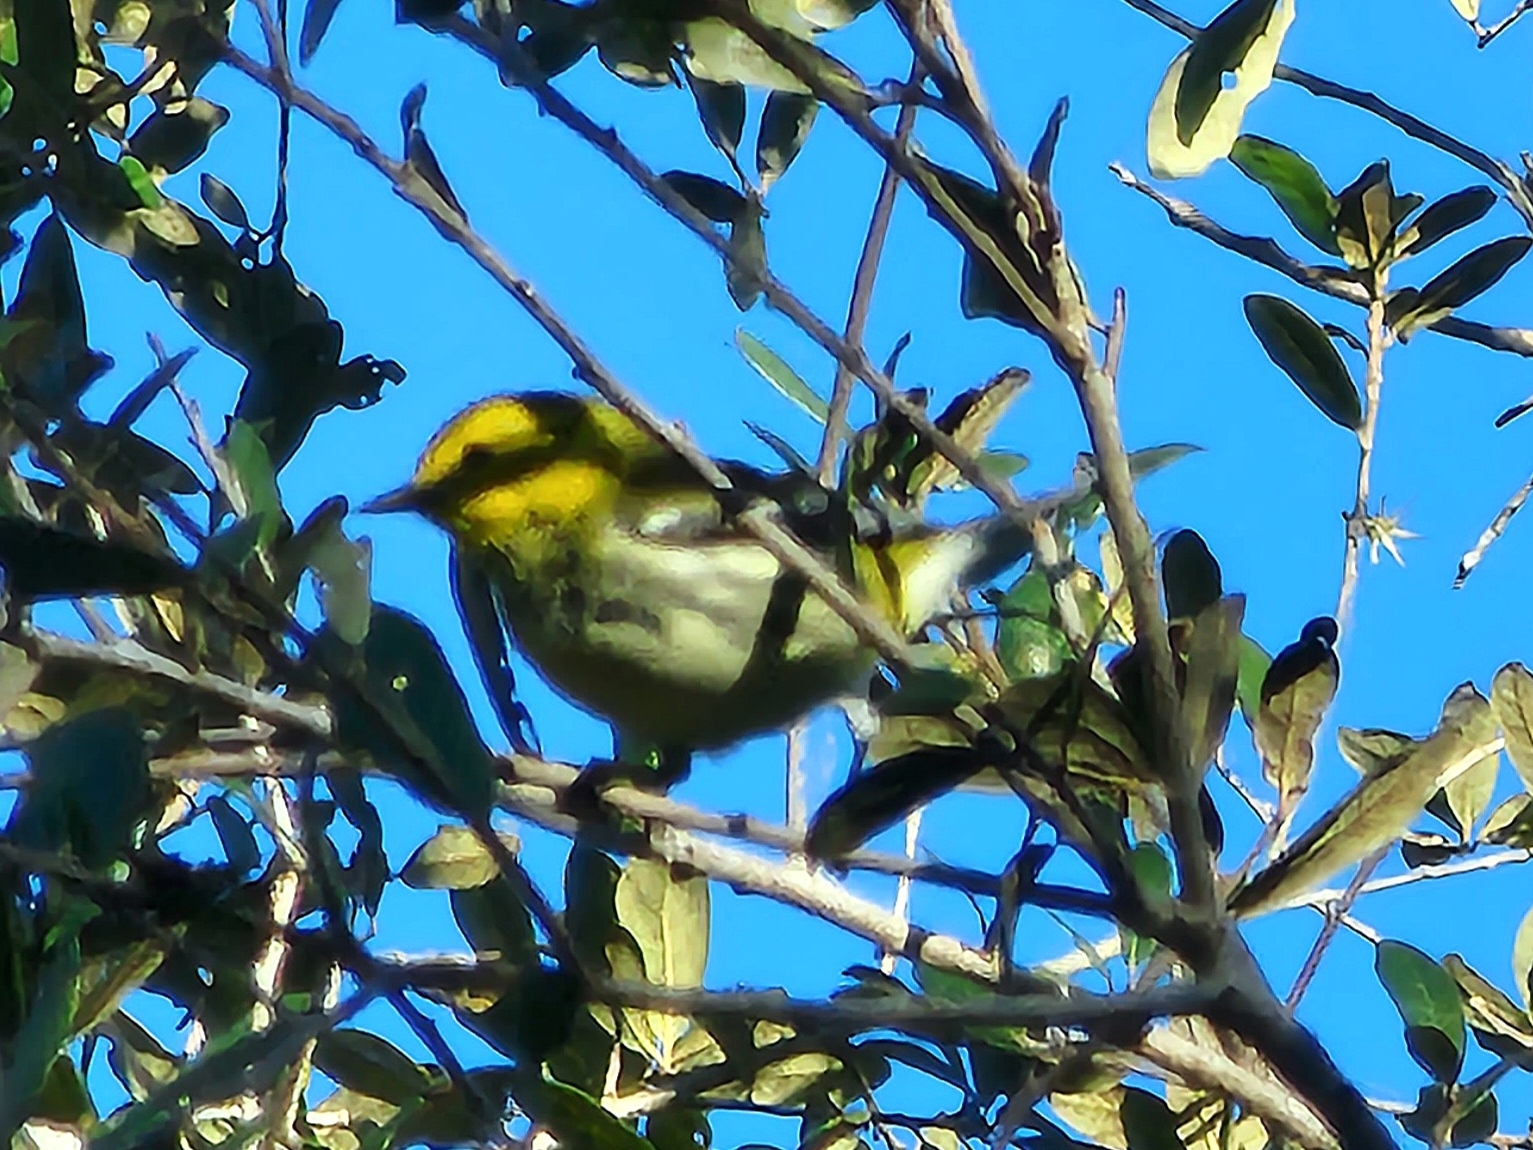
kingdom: Animalia
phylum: Chordata
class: Aves
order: Passeriformes
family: Parulidae
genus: Setophaga
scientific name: Setophaga virens
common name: Black-throated green warbler
